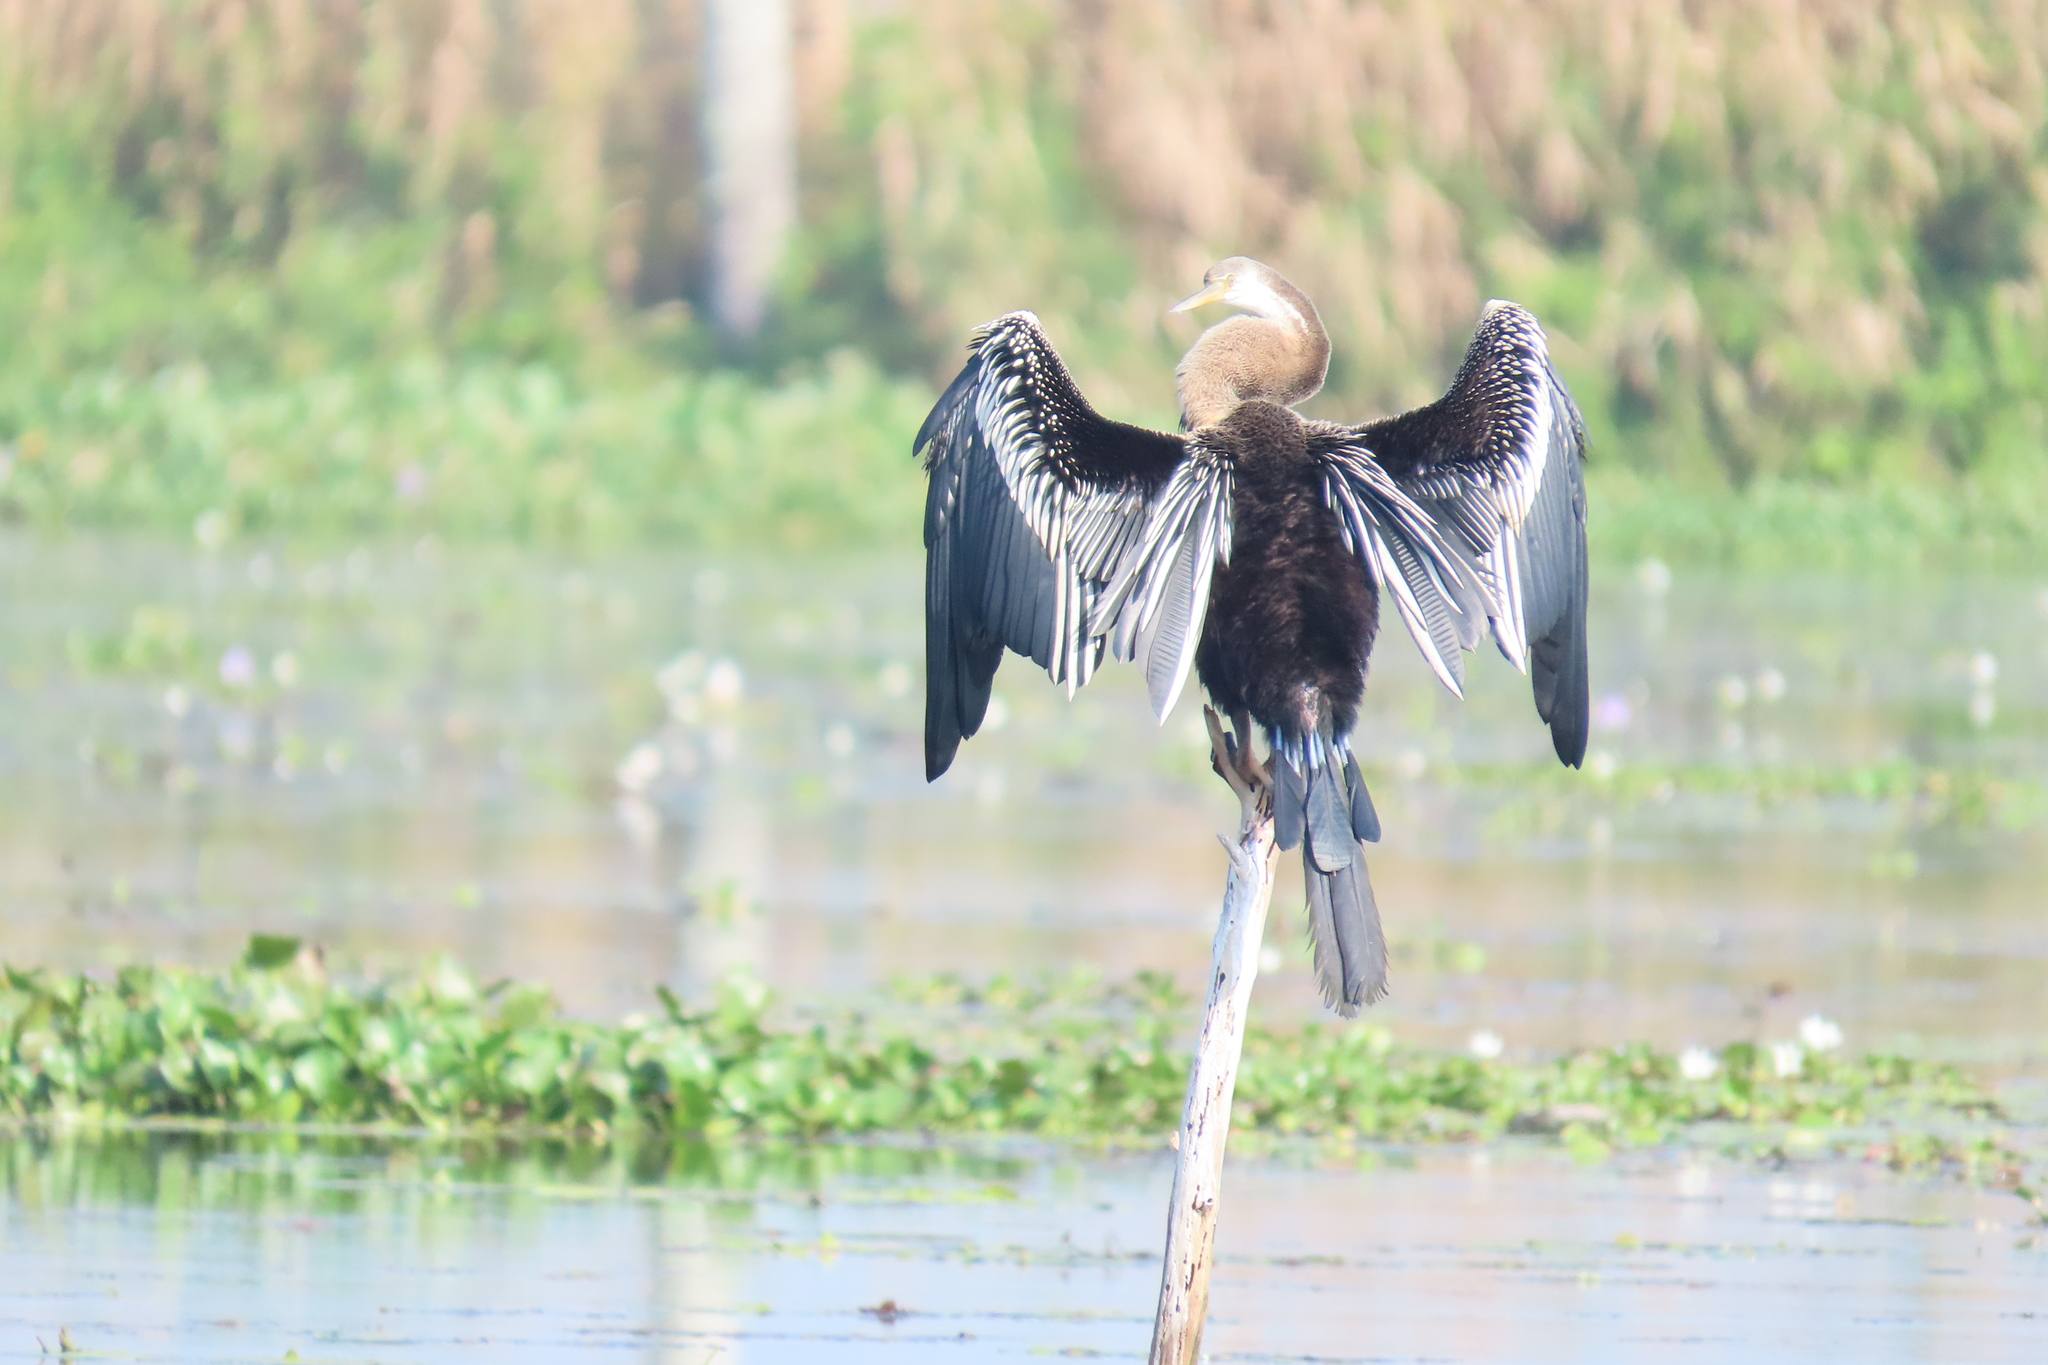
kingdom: Animalia
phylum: Chordata
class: Aves
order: Suliformes
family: Anhingidae
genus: Anhinga
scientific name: Anhinga melanogaster
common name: Oriental darter
